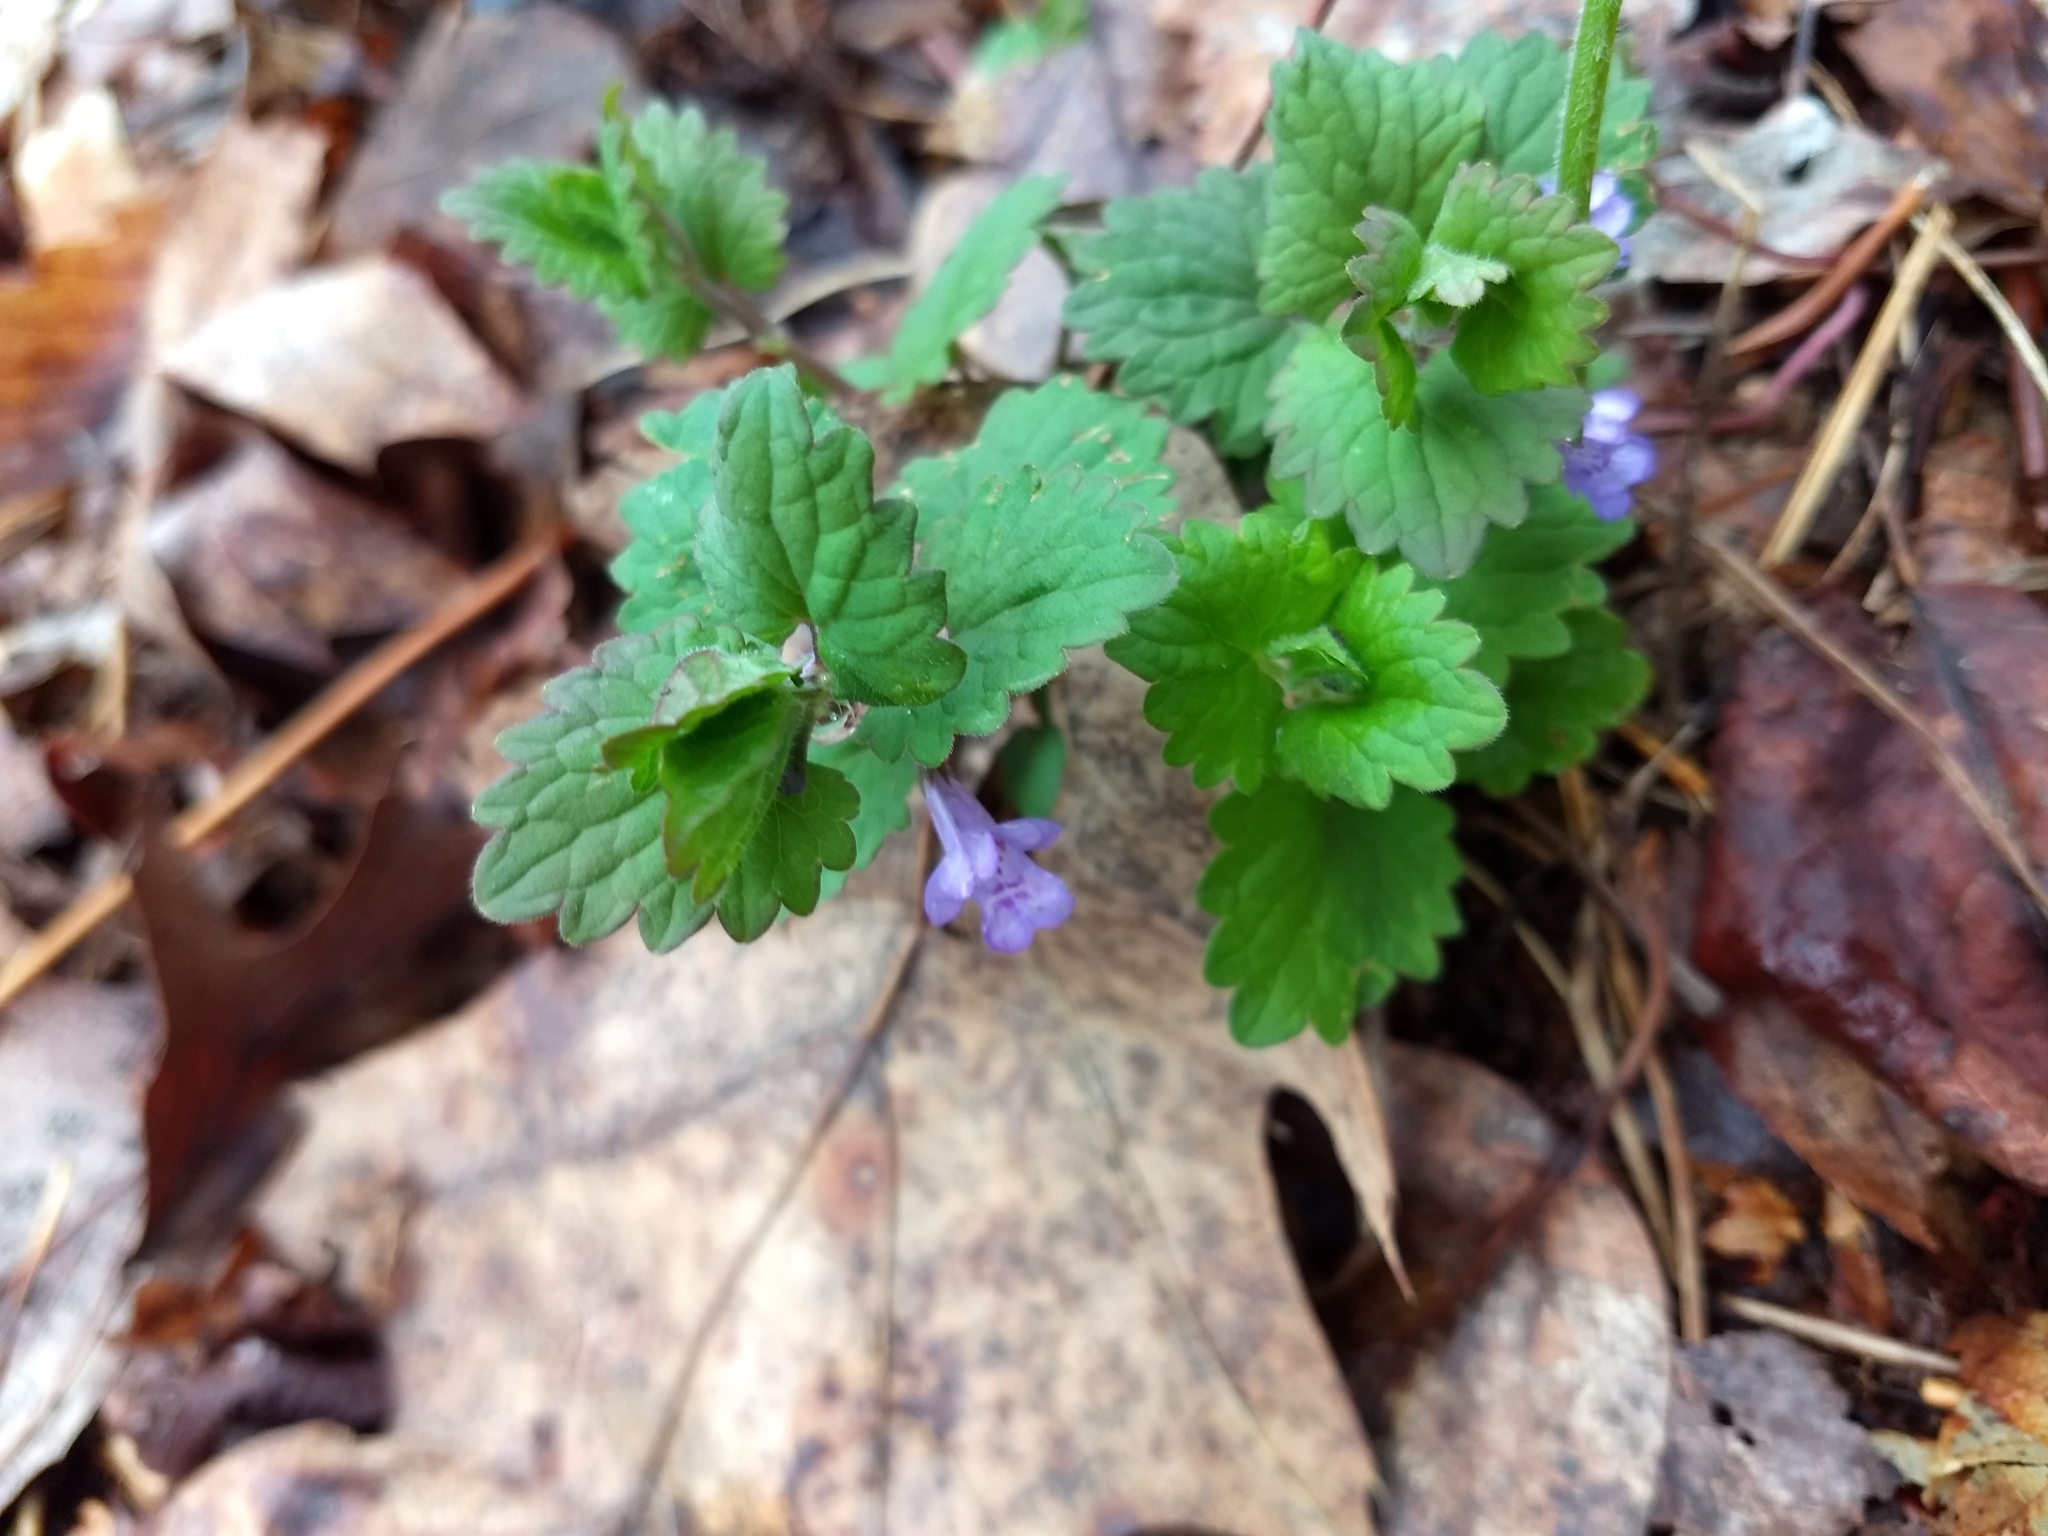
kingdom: Plantae
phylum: Tracheophyta
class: Magnoliopsida
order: Lamiales
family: Lamiaceae
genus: Glechoma
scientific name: Glechoma hederacea
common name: Ground ivy
